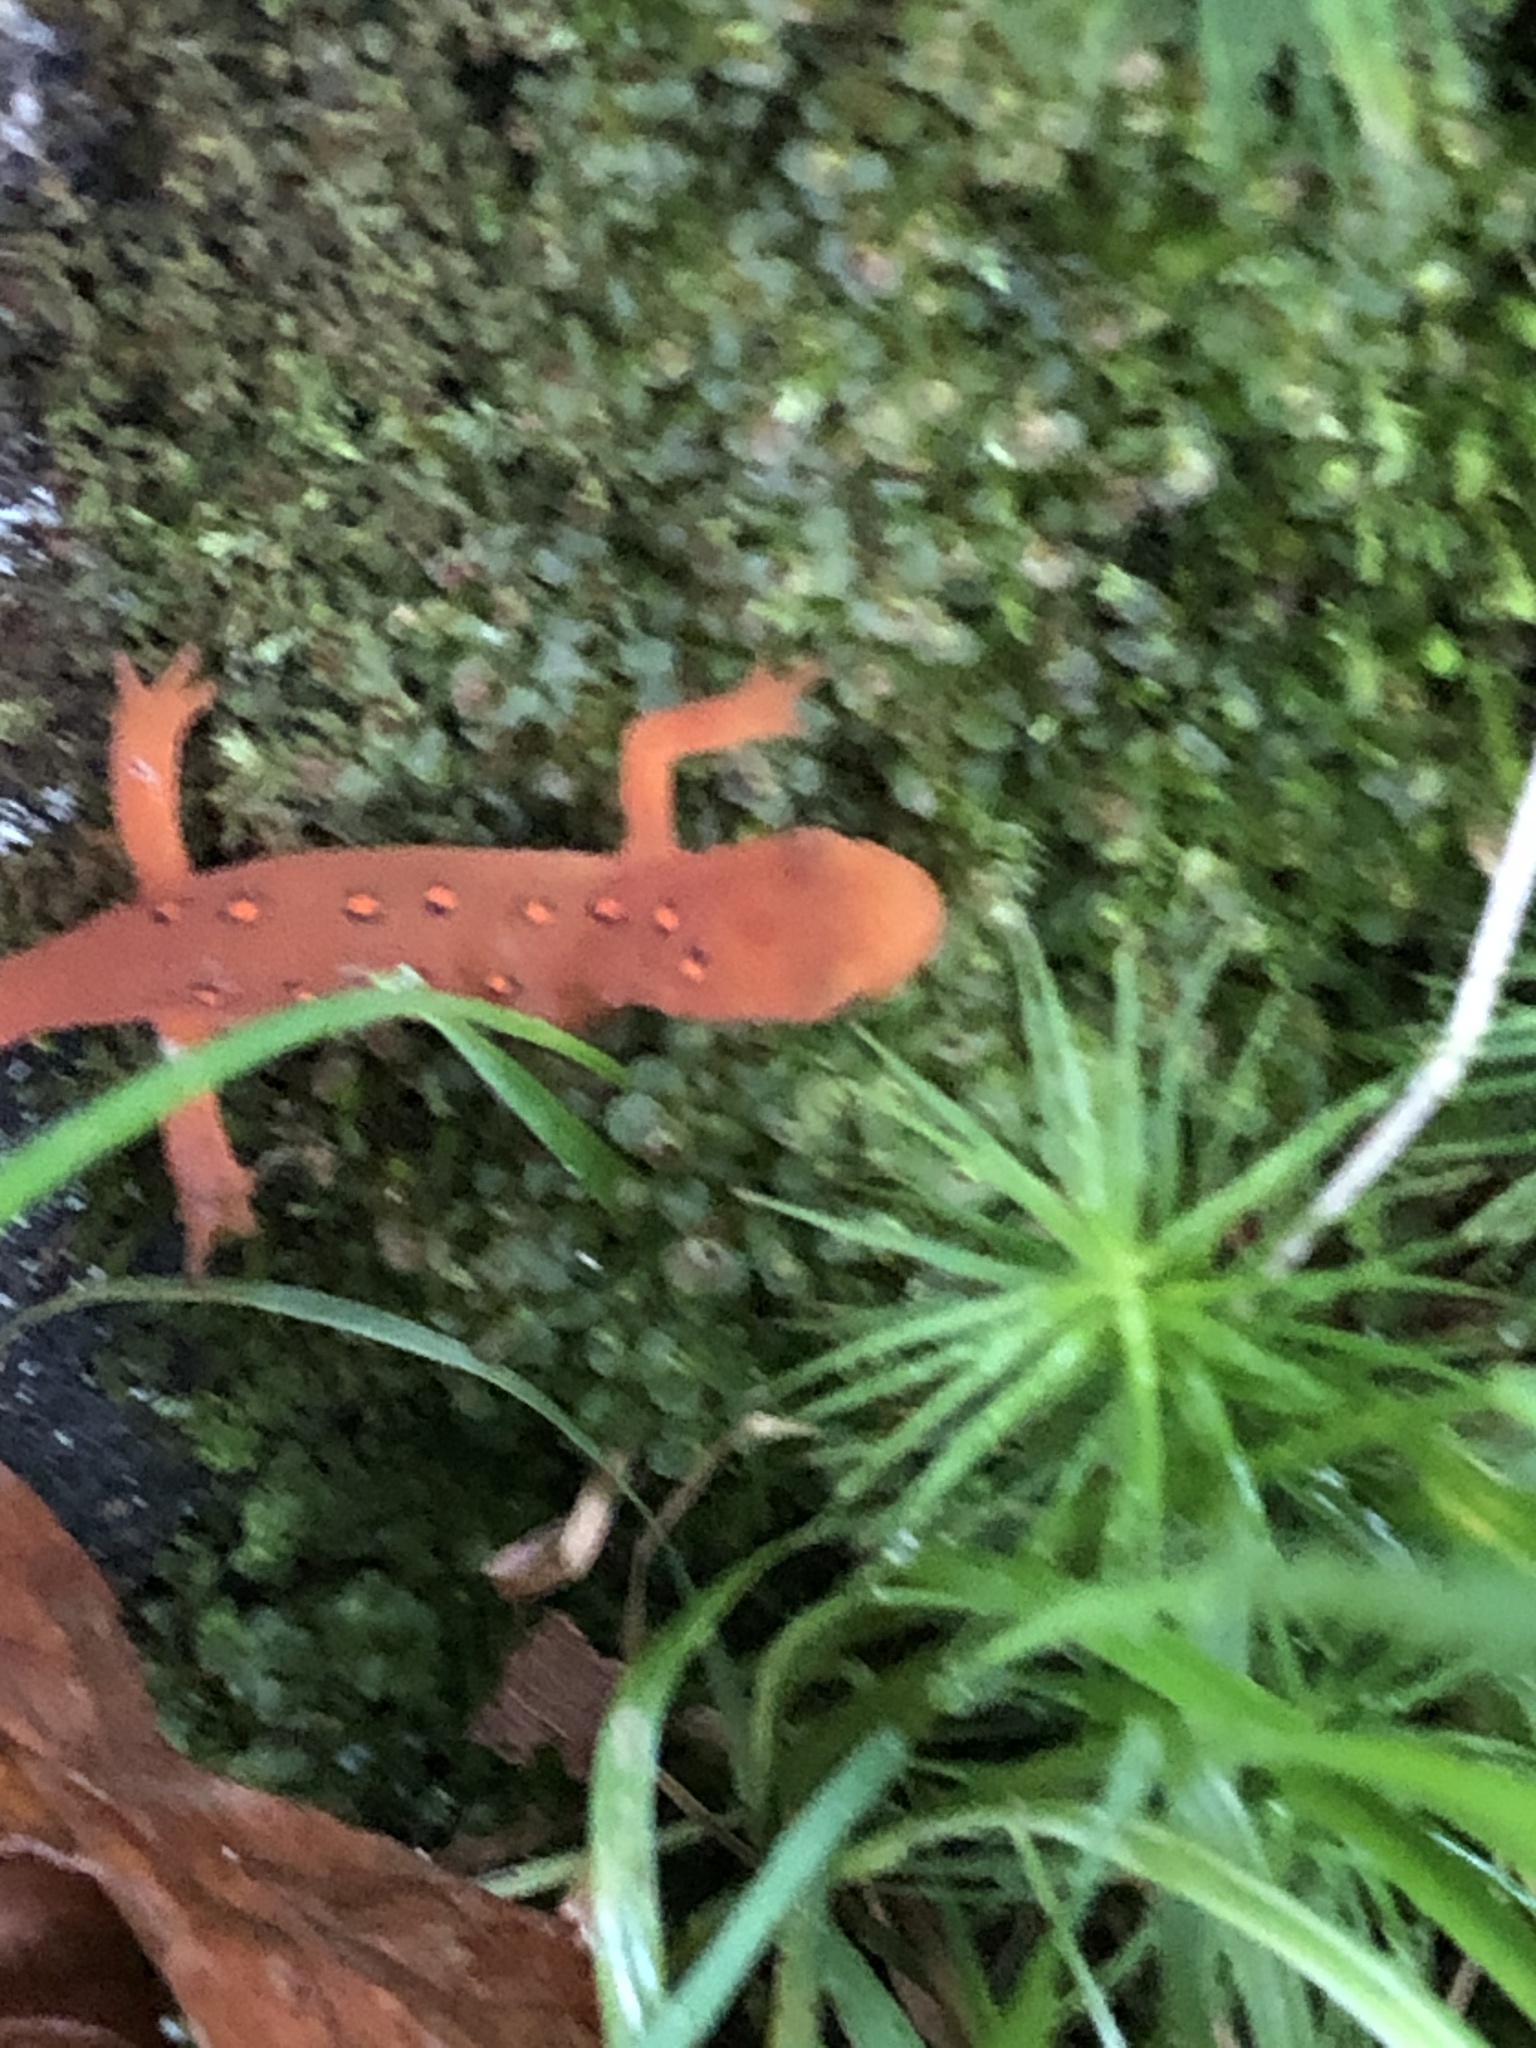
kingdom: Animalia
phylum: Chordata
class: Amphibia
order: Caudata
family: Salamandridae
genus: Notophthalmus
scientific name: Notophthalmus viridescens
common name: Eastern newt
